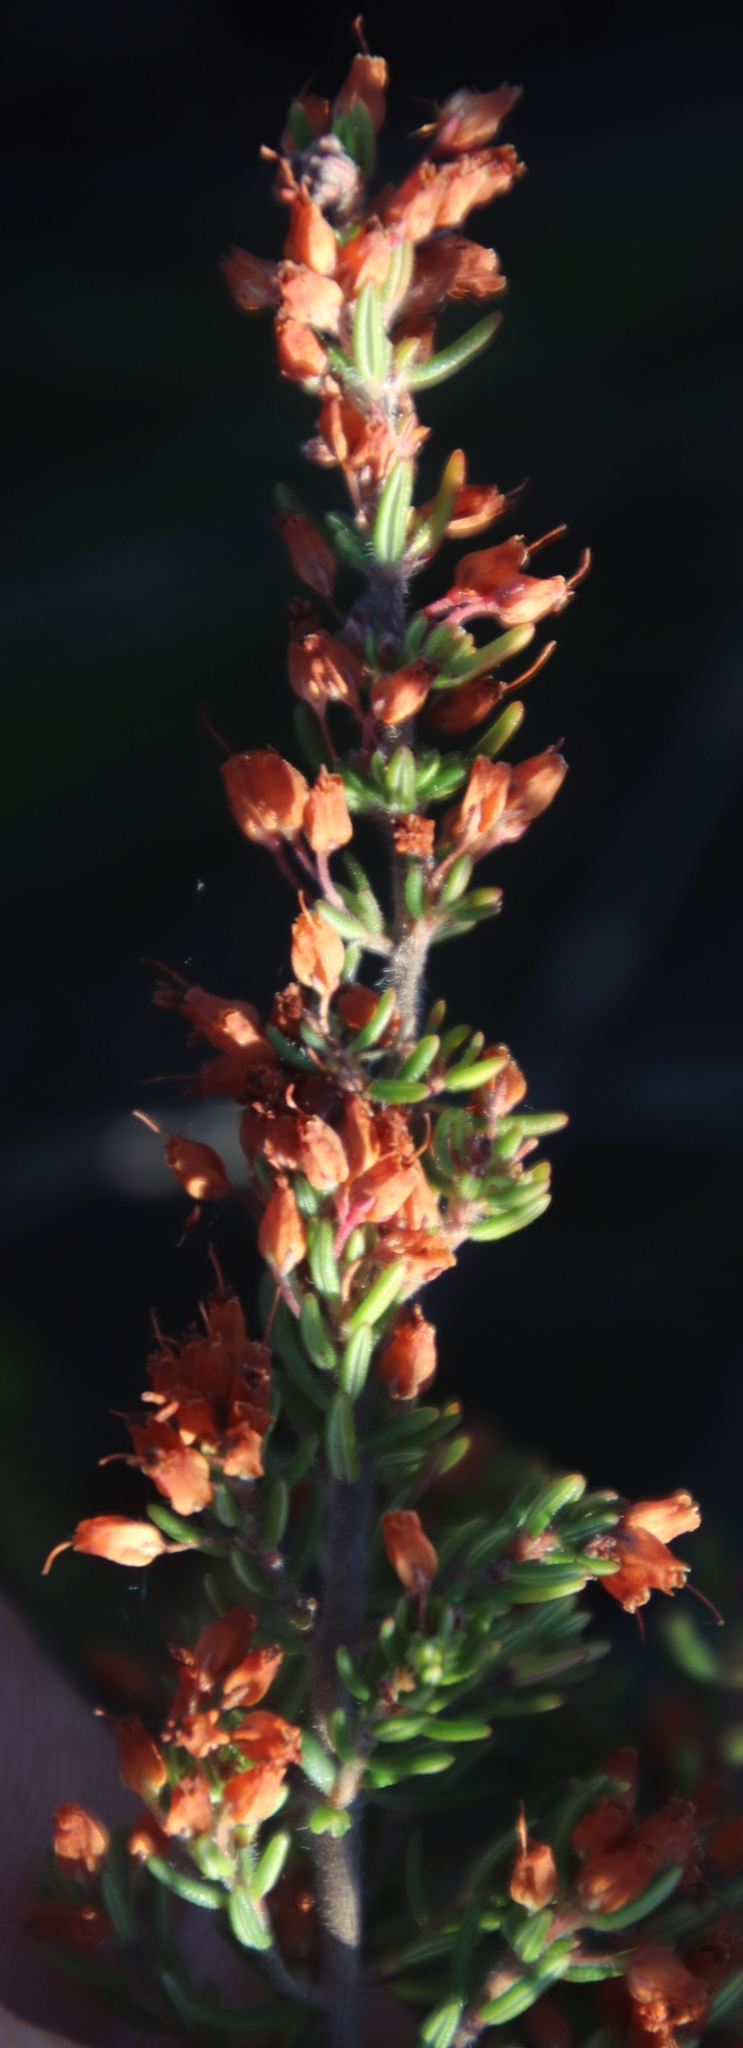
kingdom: Plantae
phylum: Tracheophyta
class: Magnoliopsida
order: Ericales
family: Ericaceae
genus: Erica
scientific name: Erica nudiflora
